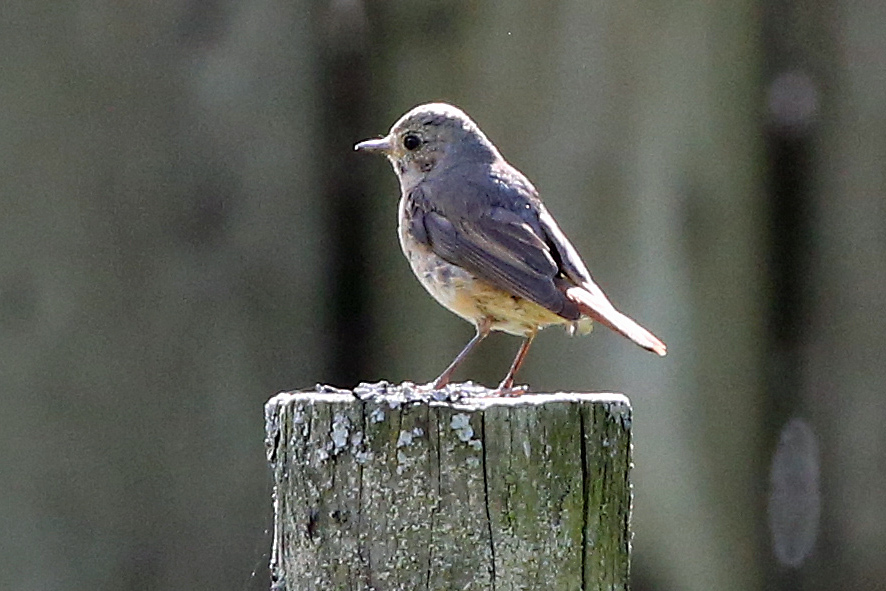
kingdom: Animalia
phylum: Chordata
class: Aves
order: Passeriformes
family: Muscicapidae
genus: Phoenicurus
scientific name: Phoenicurus phoenicurus
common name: Common redstart
